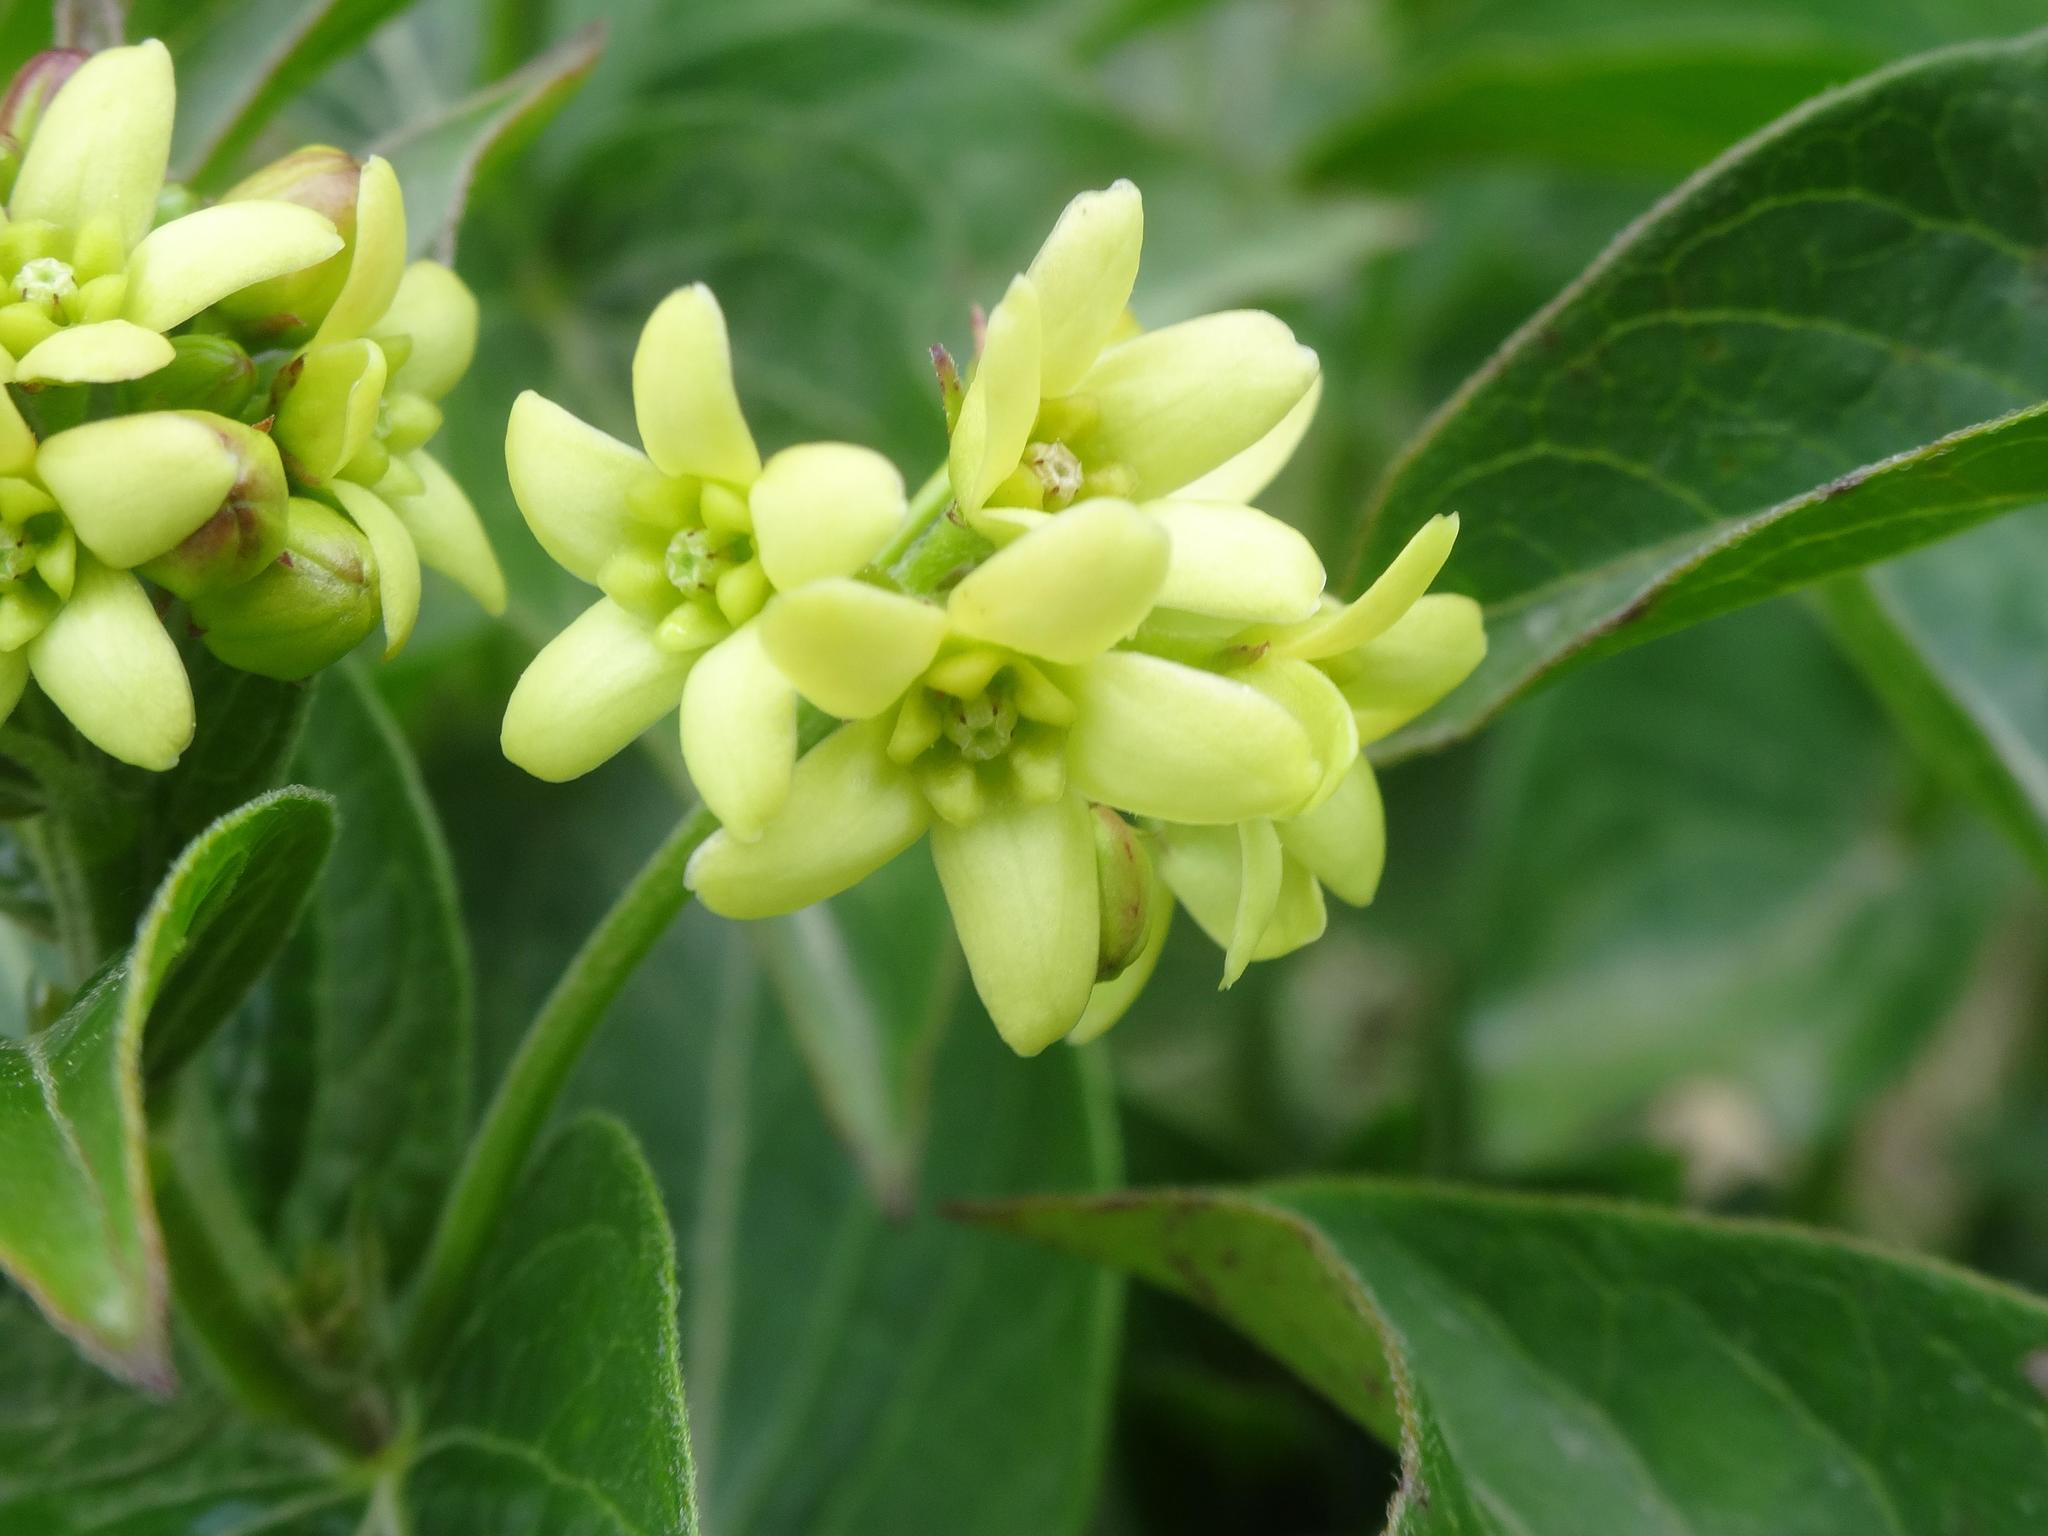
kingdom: Plantae
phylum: Tracheophyta
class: Magnoliopsida
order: Gentianales
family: Apocynaceae
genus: Vincetoxicum
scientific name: Vincetoxicum hirundinaria
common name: White swallowwort
